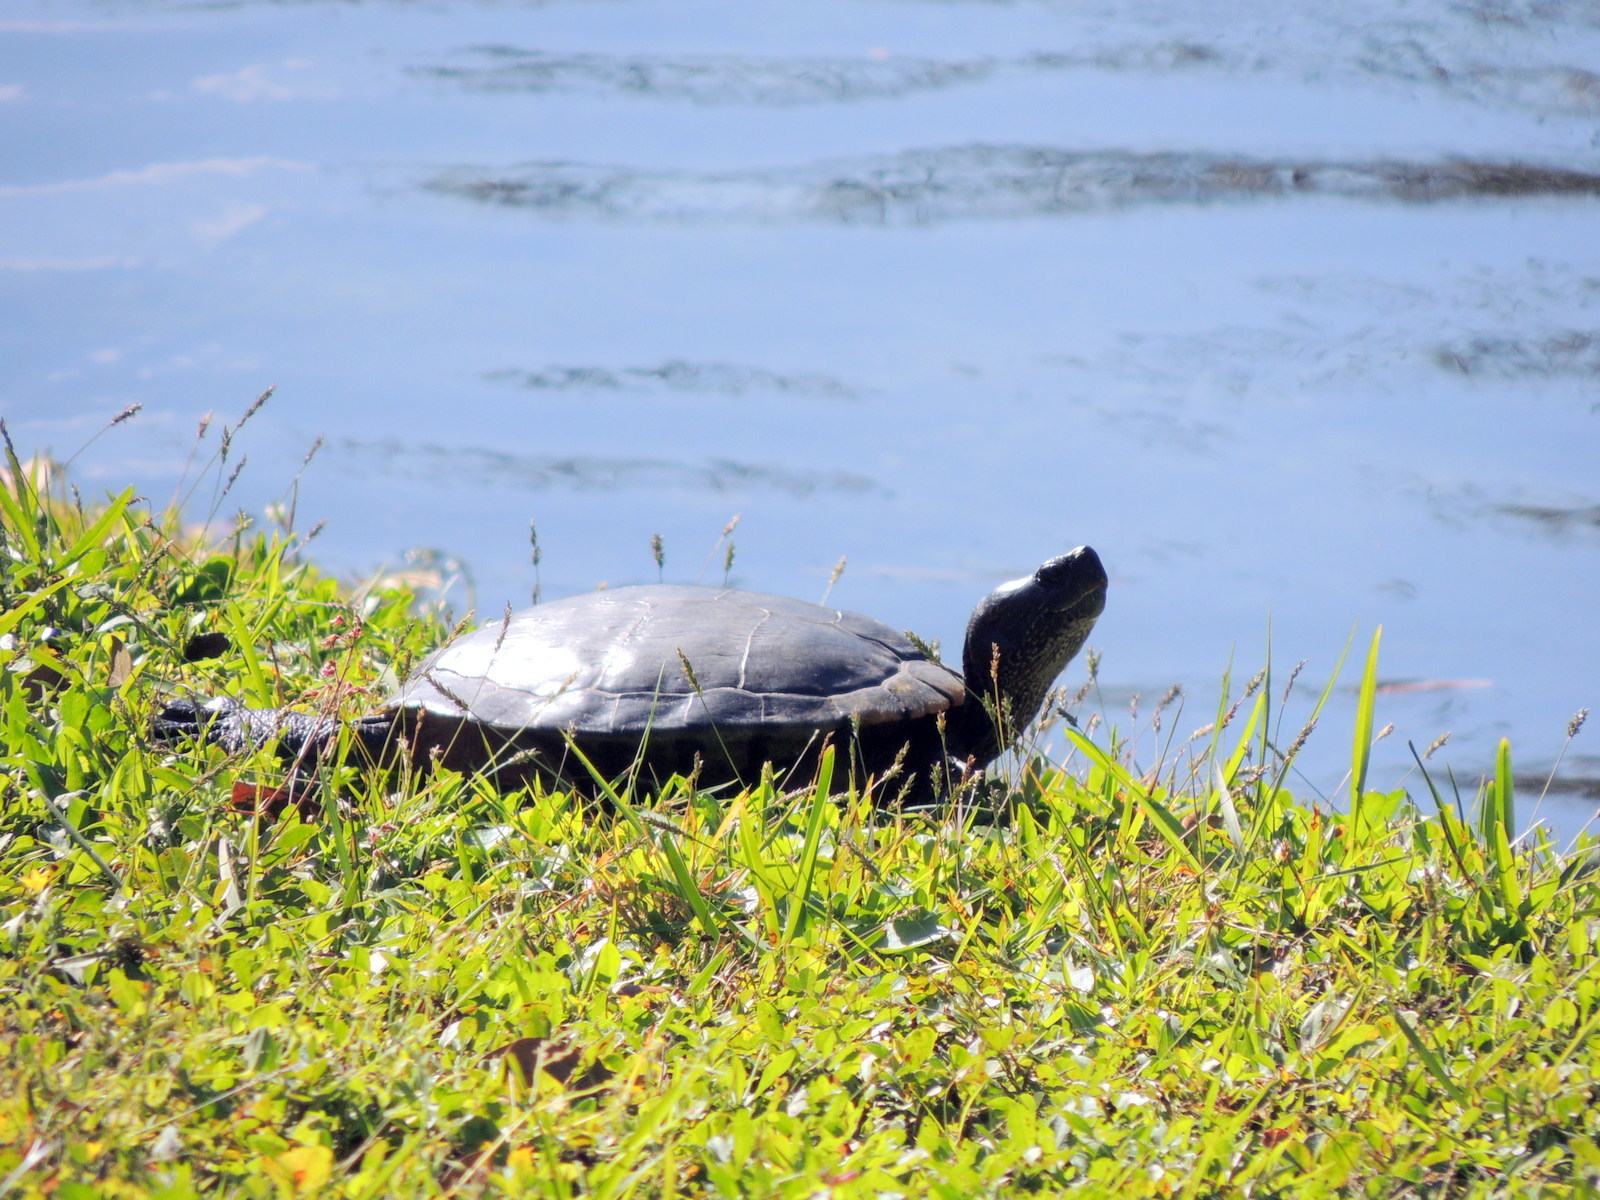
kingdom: Animalia
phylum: Chordata
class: Testudines
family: Emydidae
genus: Trachemys
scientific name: Trachemys scripta
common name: Slider
